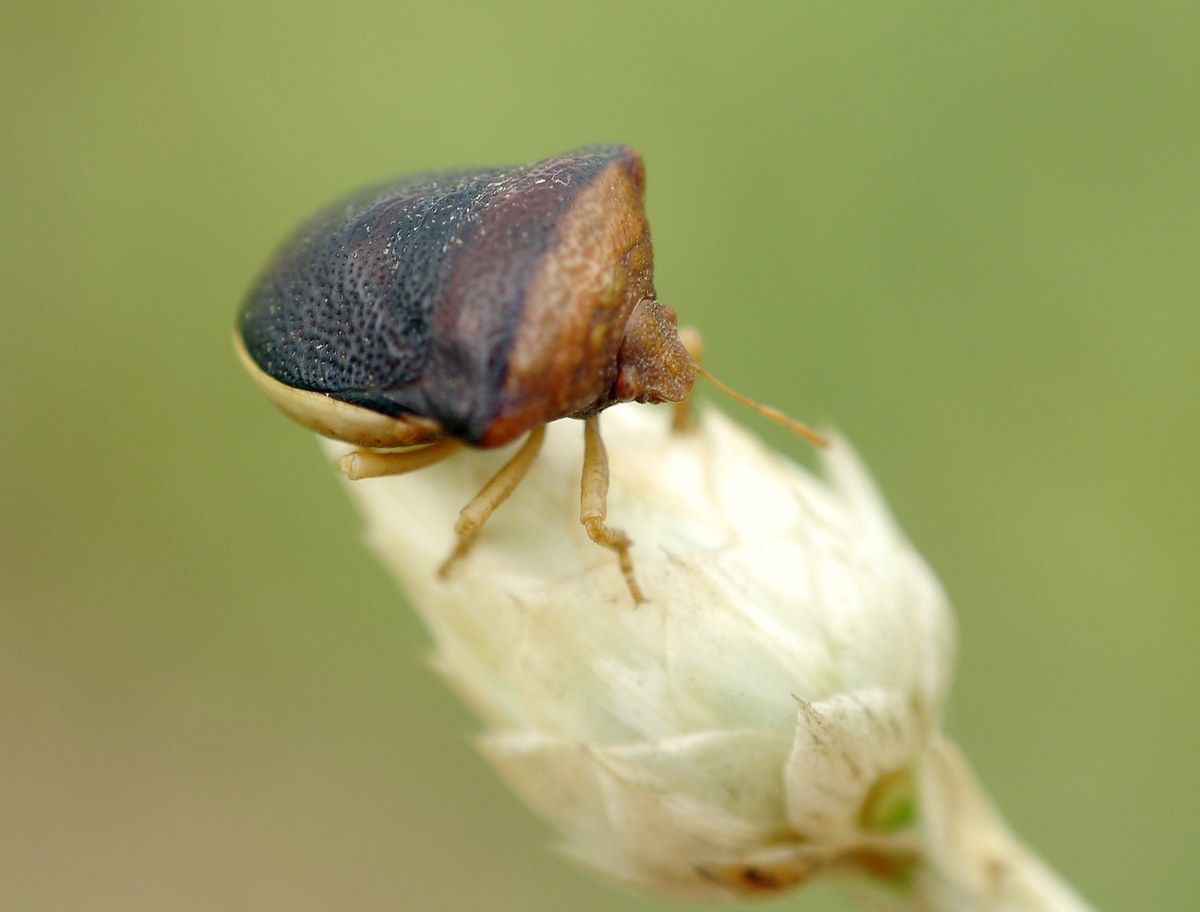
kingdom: Animalia
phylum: Arthropoda
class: Insecta
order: Hemiptera
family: Pentatomidae
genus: Ventocoris
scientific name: Ventocoris rusticus
